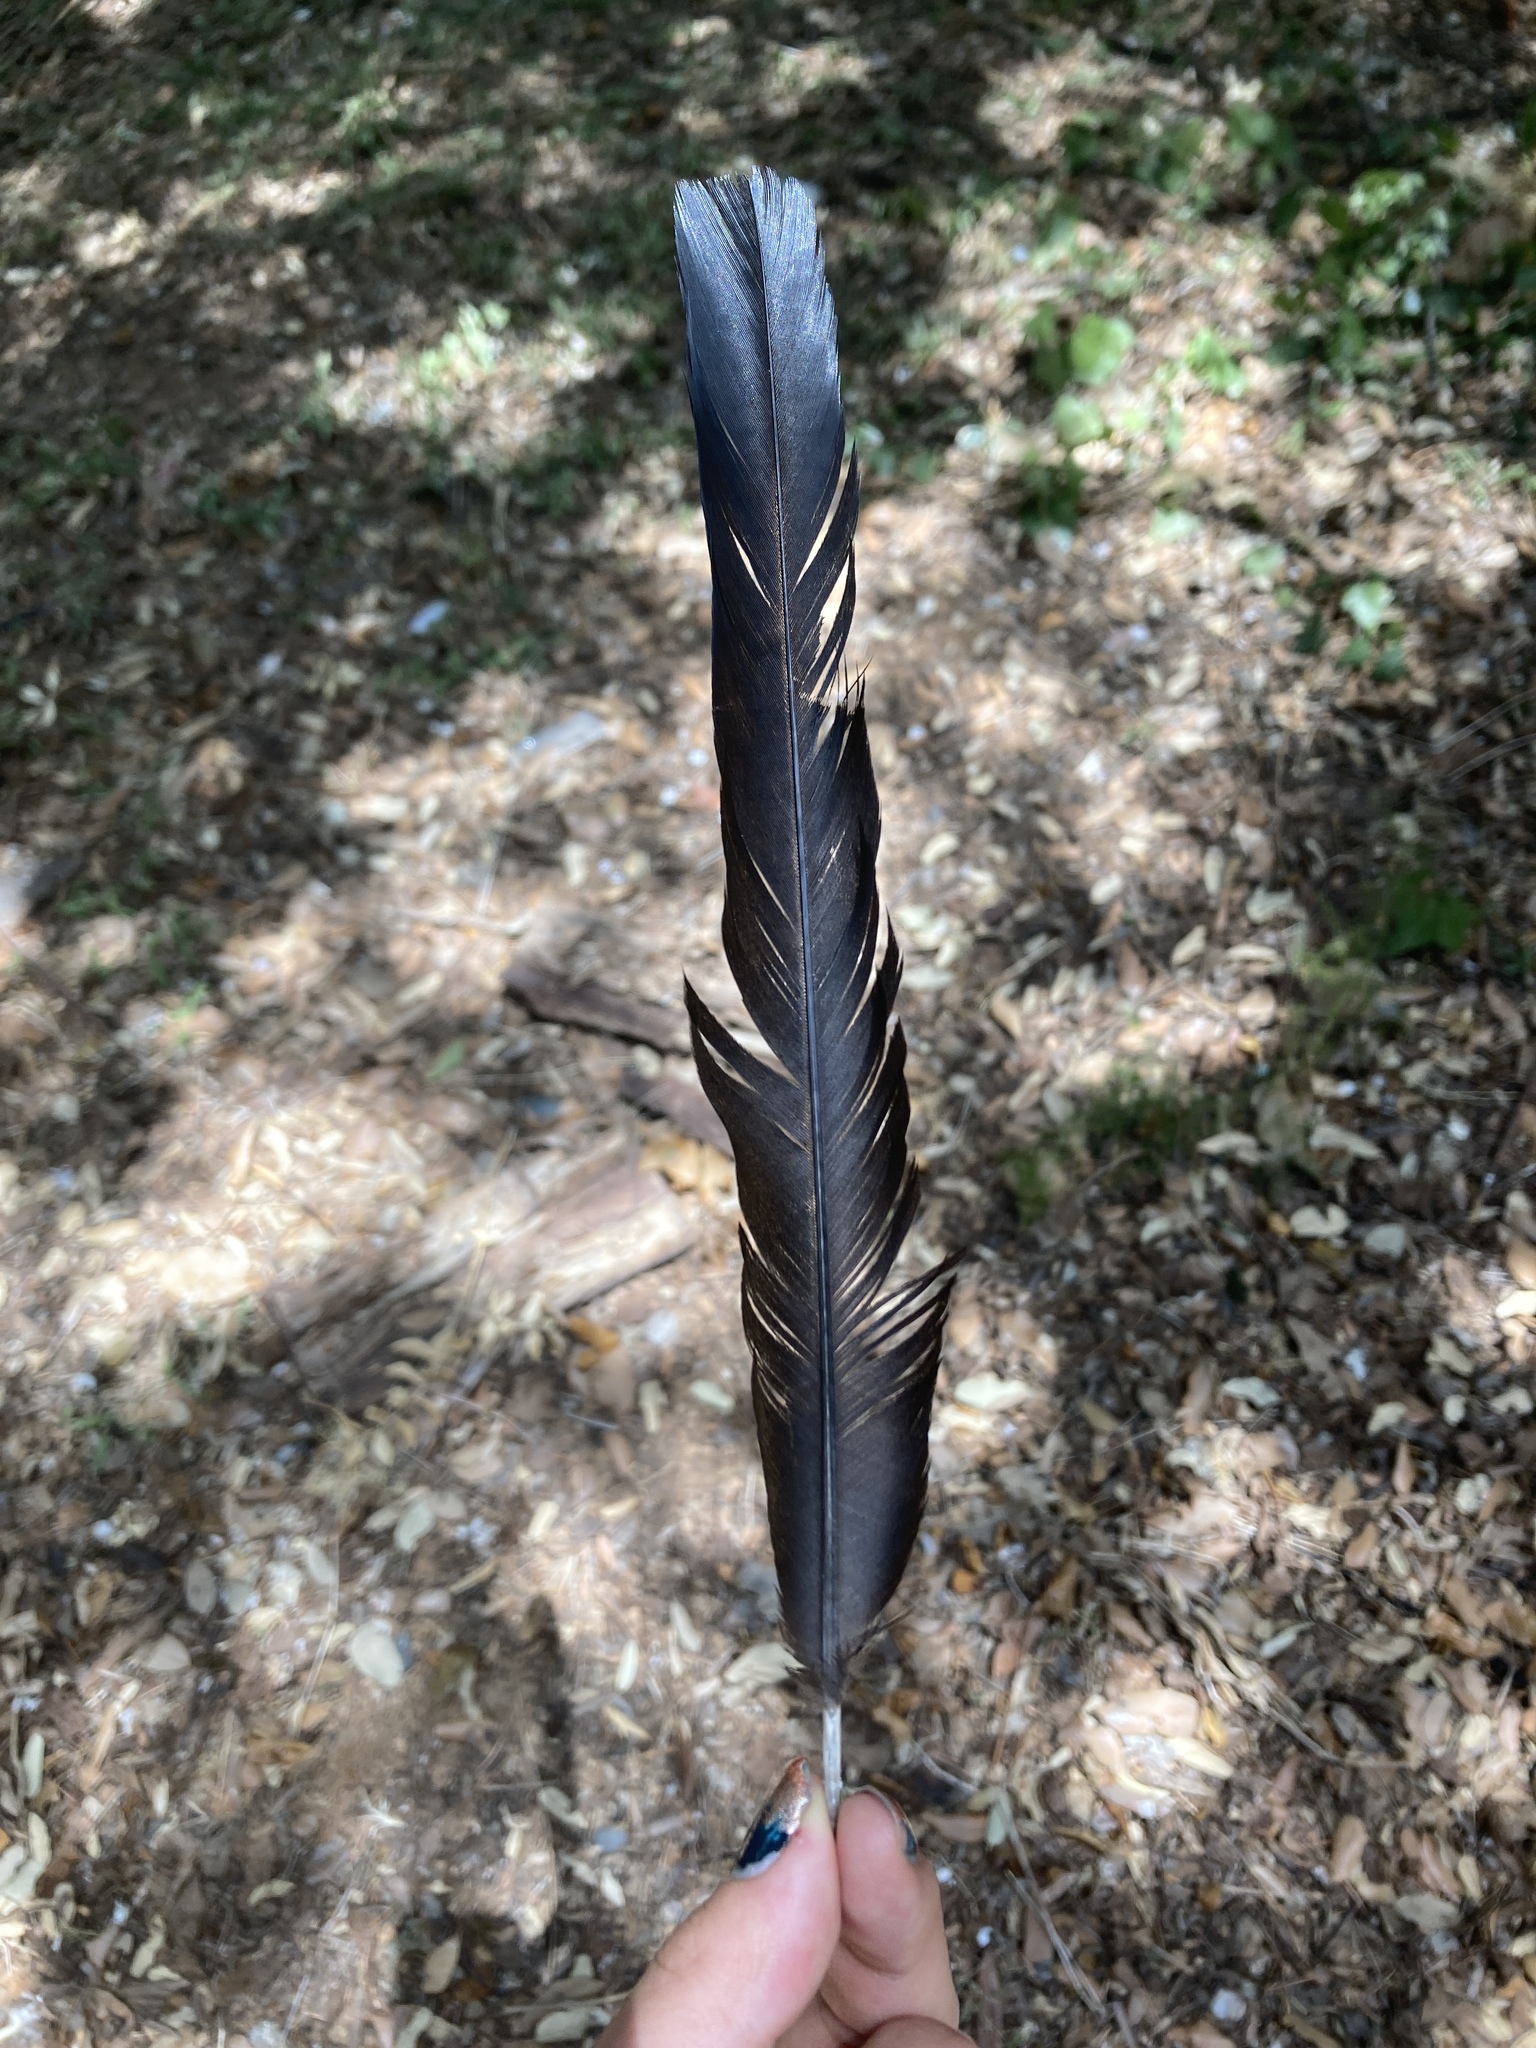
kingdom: Animalia
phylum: Chordata
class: Aves
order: Passeriformes
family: Corvidae
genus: Pica
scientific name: Pica pica
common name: Eurasian magpie
